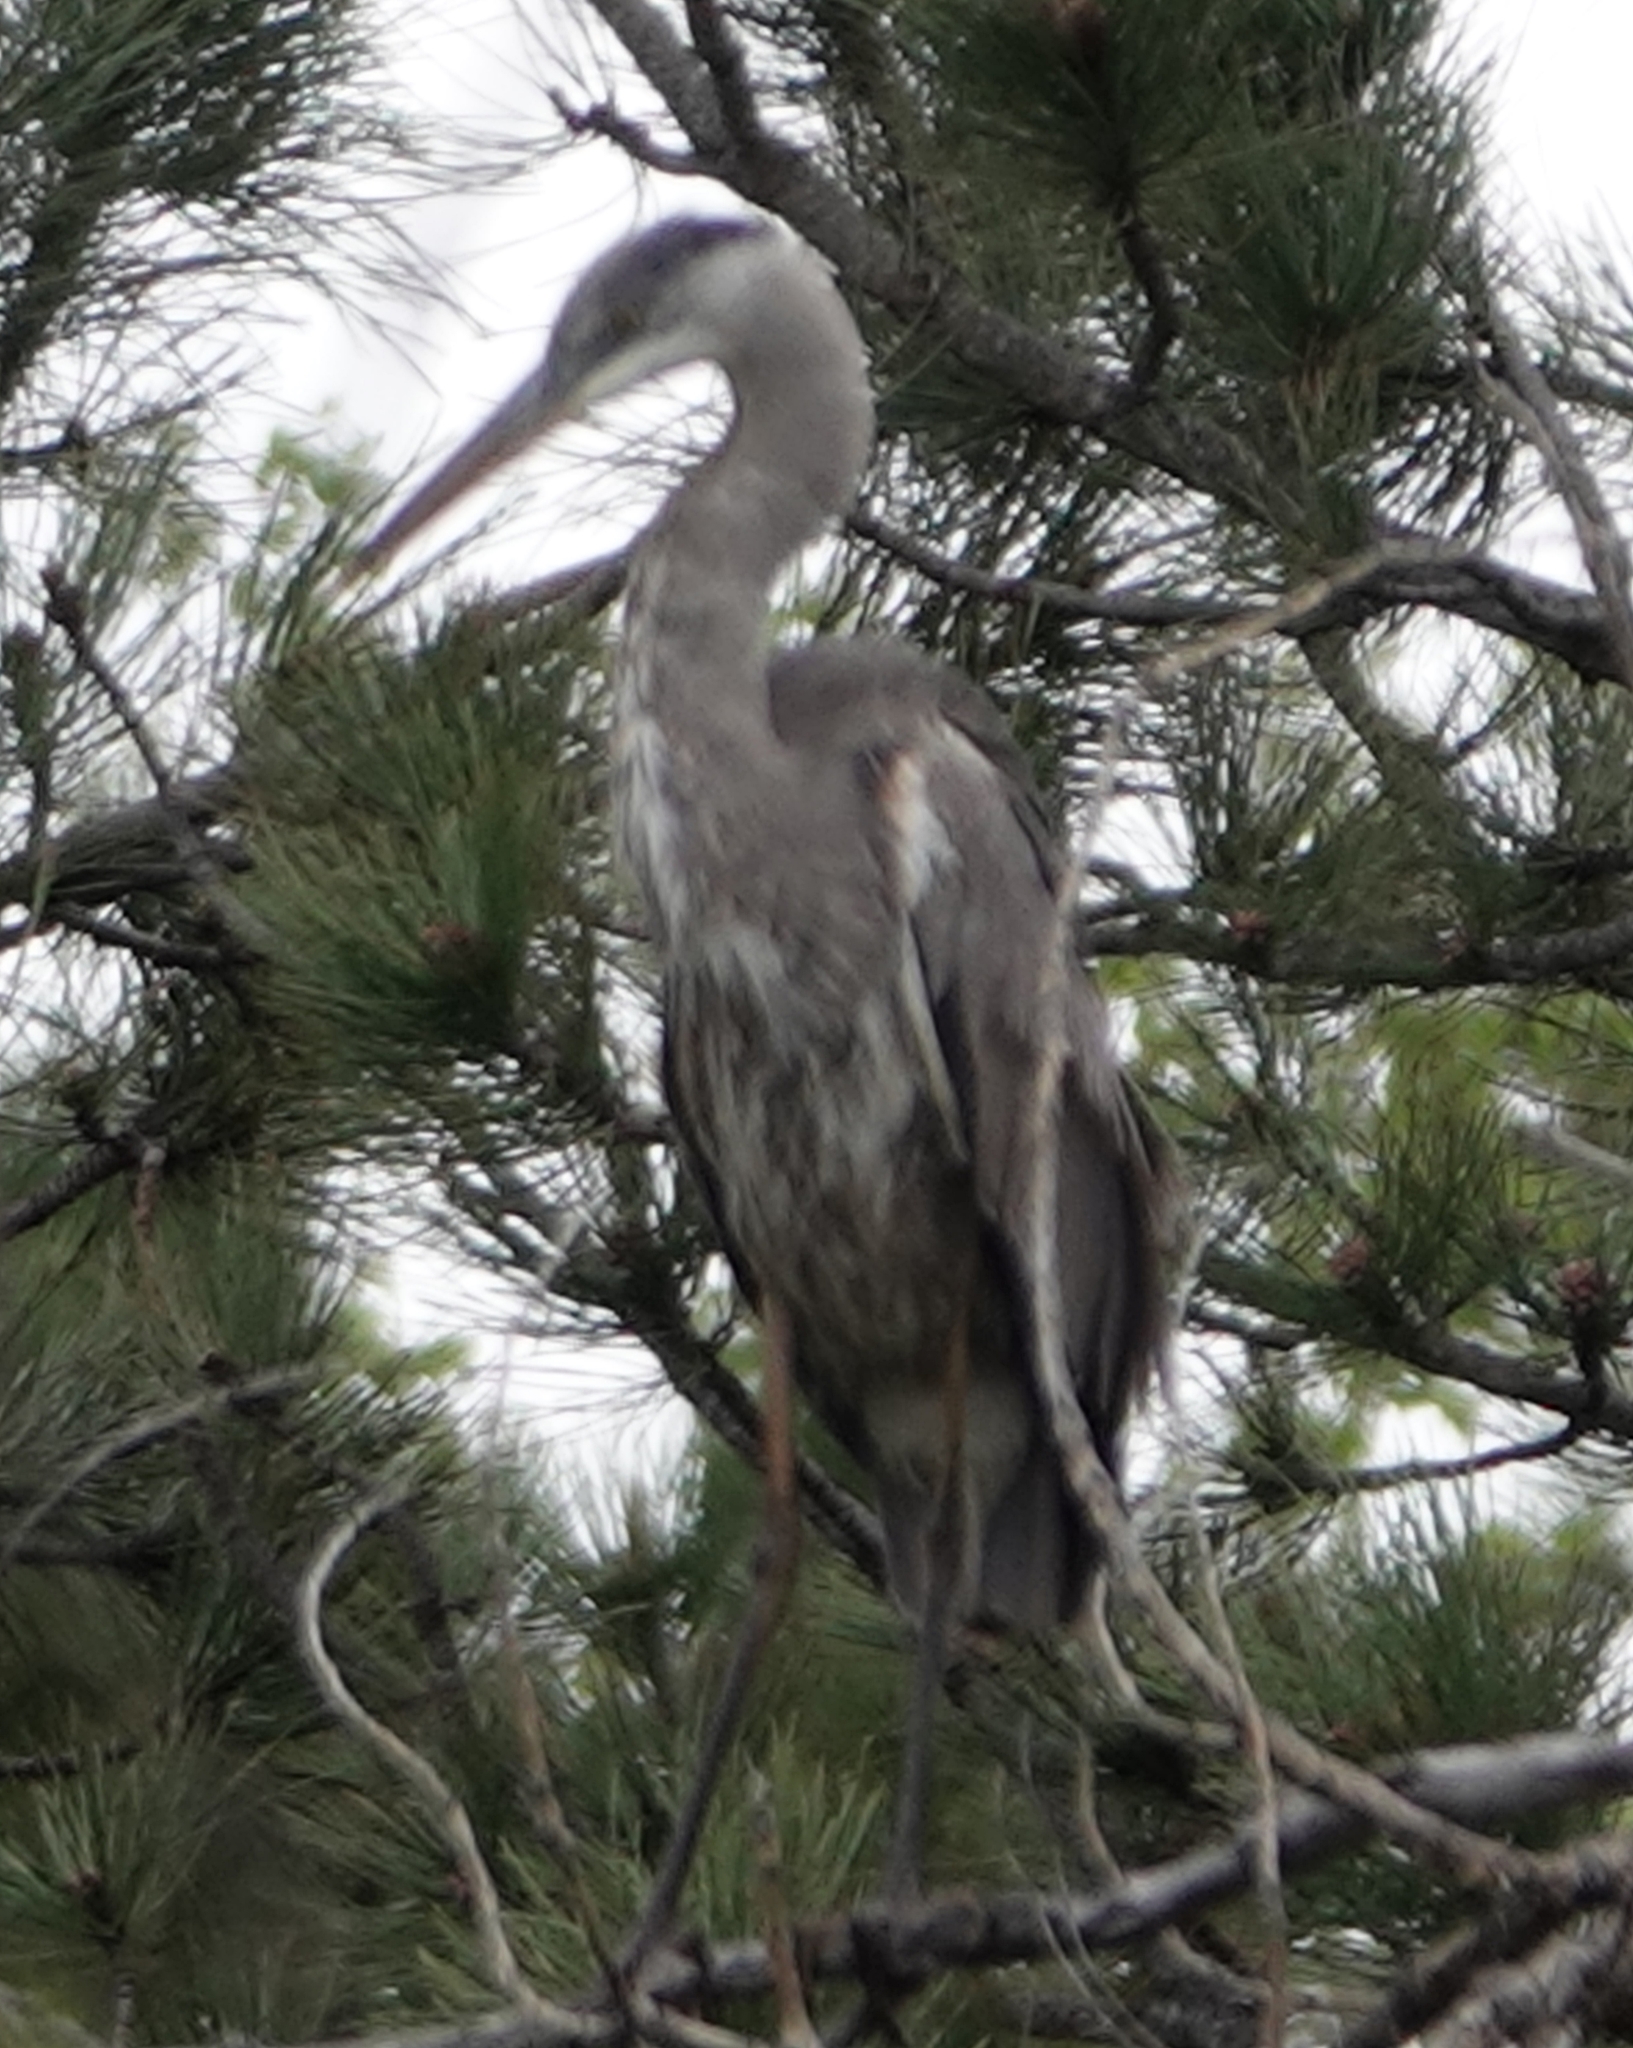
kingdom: Animalia
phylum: Chordata
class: Aves
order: Pelecaniformes
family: Ardeidae
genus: Ardea
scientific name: Ardea herodias
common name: Great blue heron
